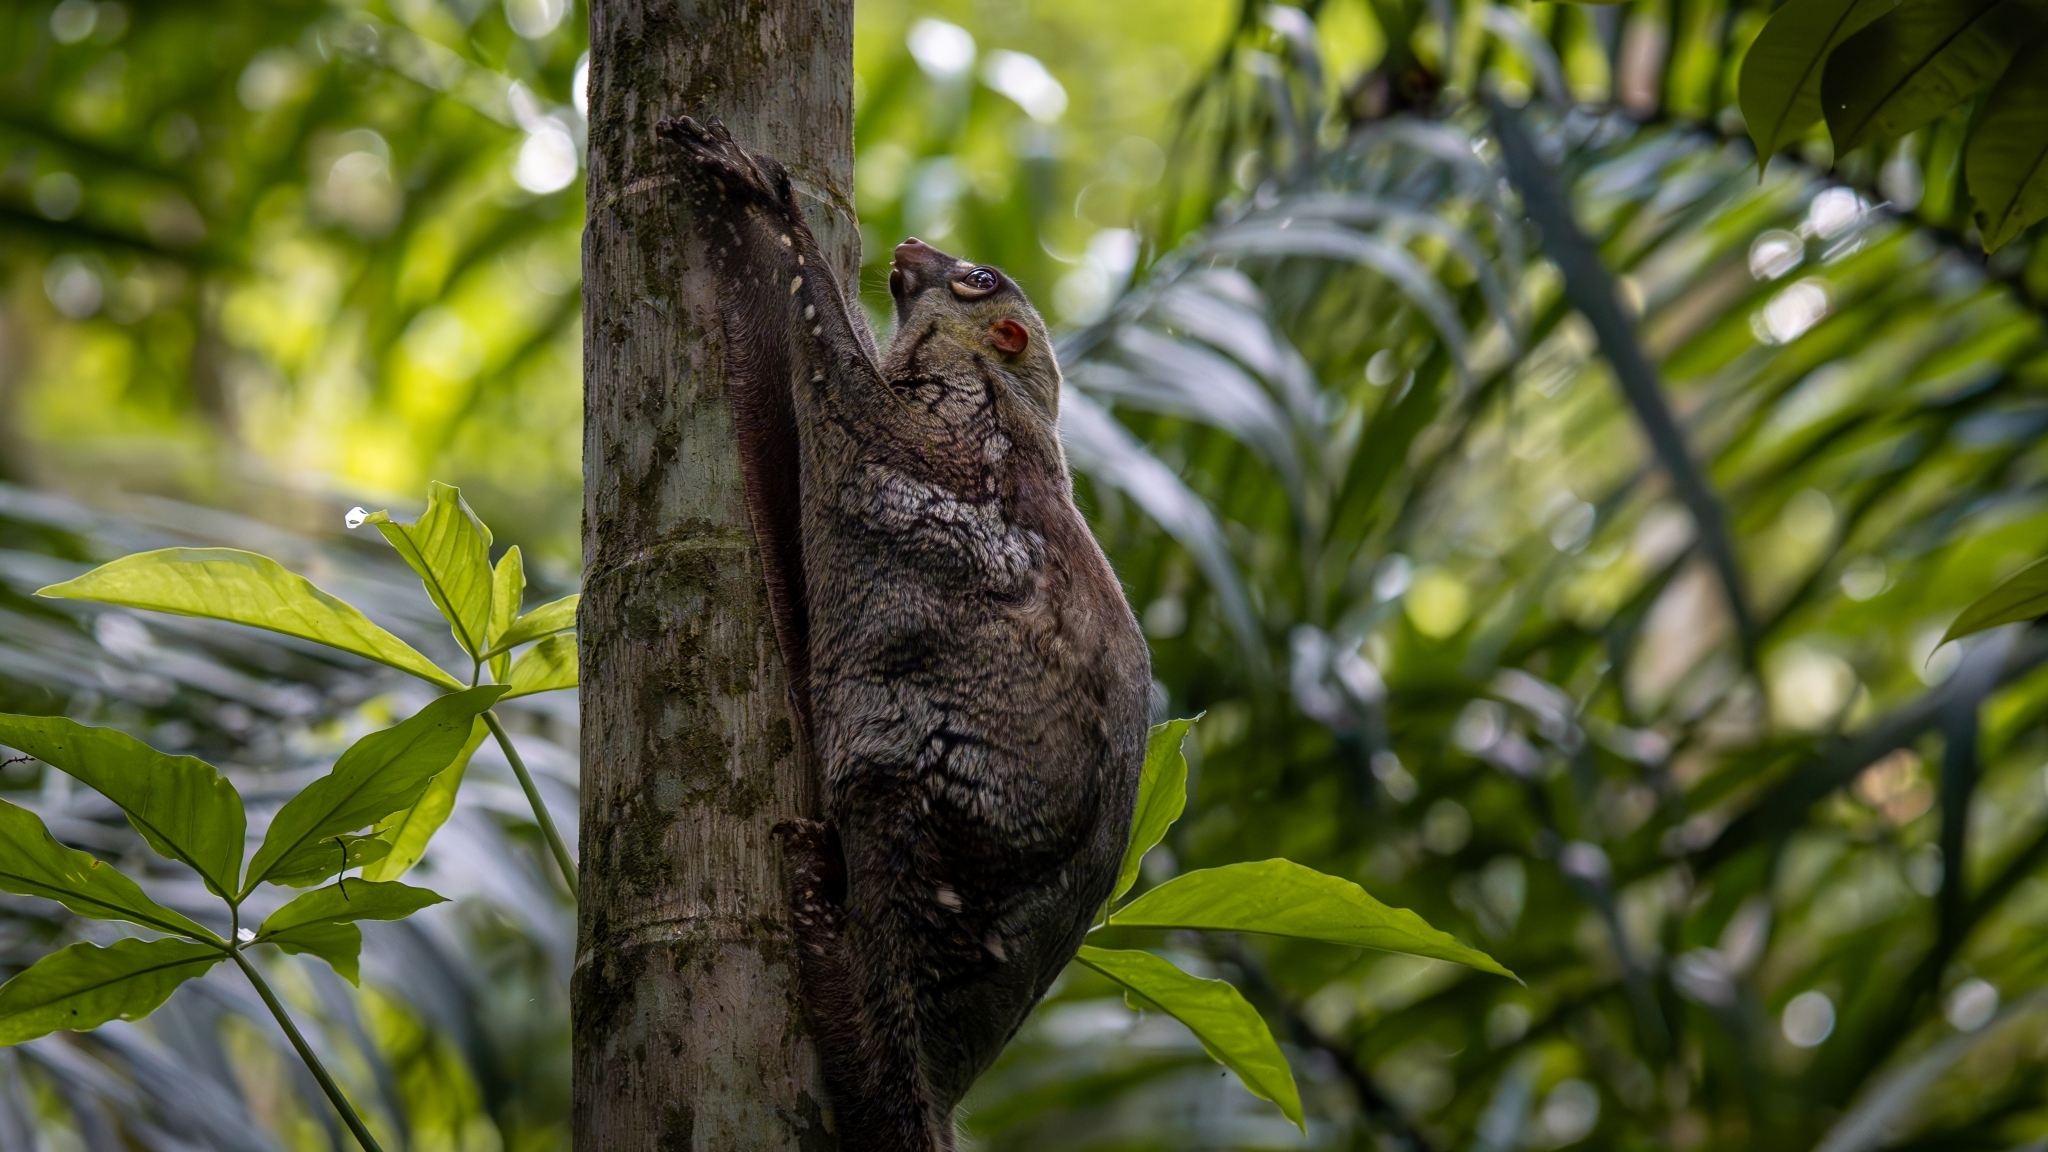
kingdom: Animalia
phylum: Chordata
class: Mammalia
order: Dermoptera
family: Cynocephalidae
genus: Galeopterus
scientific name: Galeopterus variegatus
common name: Sunda flying lemur
